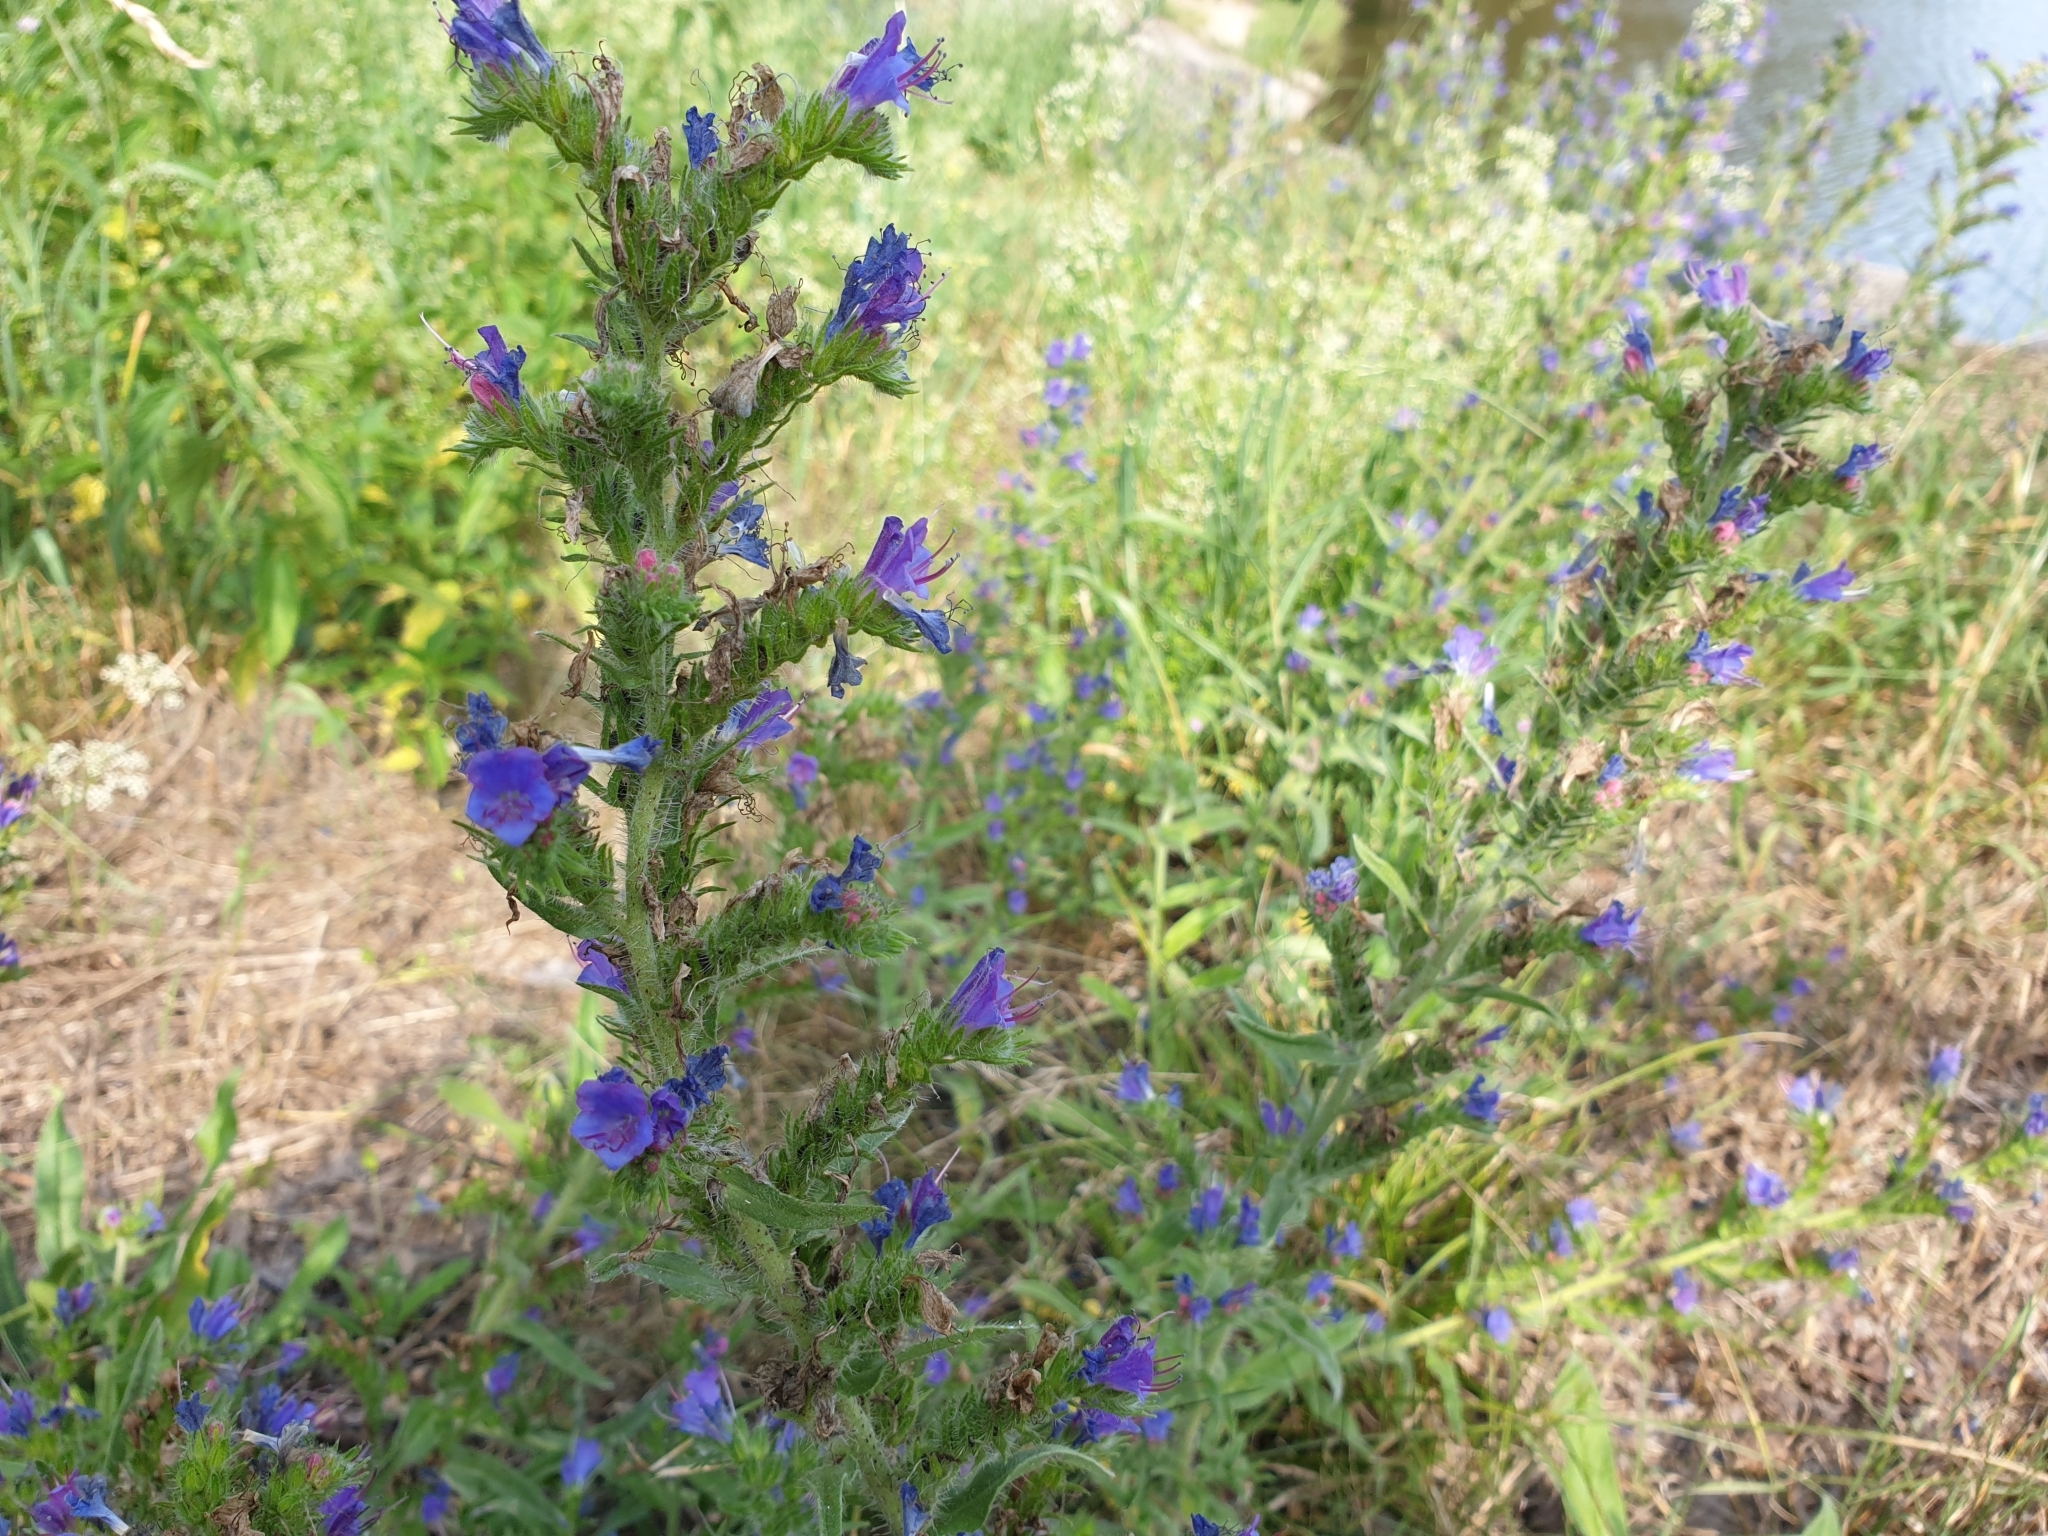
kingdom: Plantae
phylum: Tracheophyta
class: Magnoliopsida
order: Boraginales
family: Boraginaceae
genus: Echium
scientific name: Echium vulgare
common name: Common viper's bugloss
